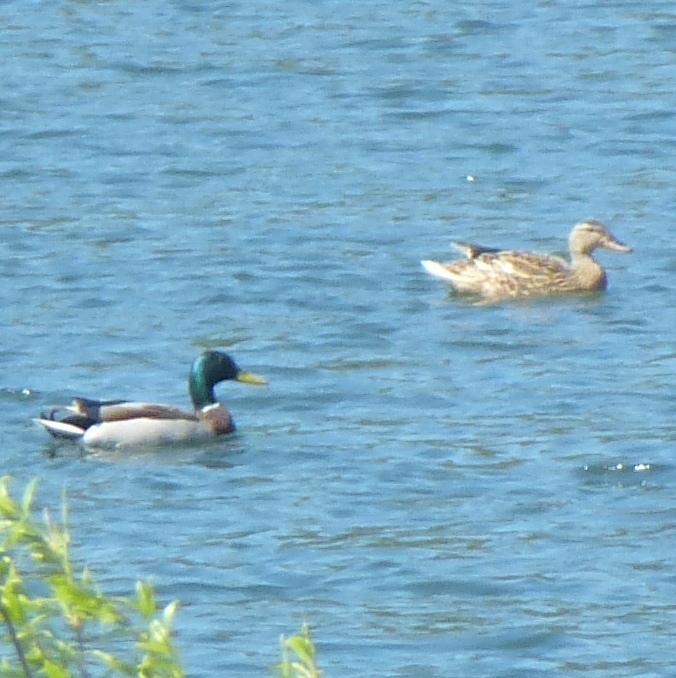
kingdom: Animalia
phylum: Chordata
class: Aves
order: Anseriformes
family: Anatidae
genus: Anas
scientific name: Anas platyrhynchos
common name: Mallard
